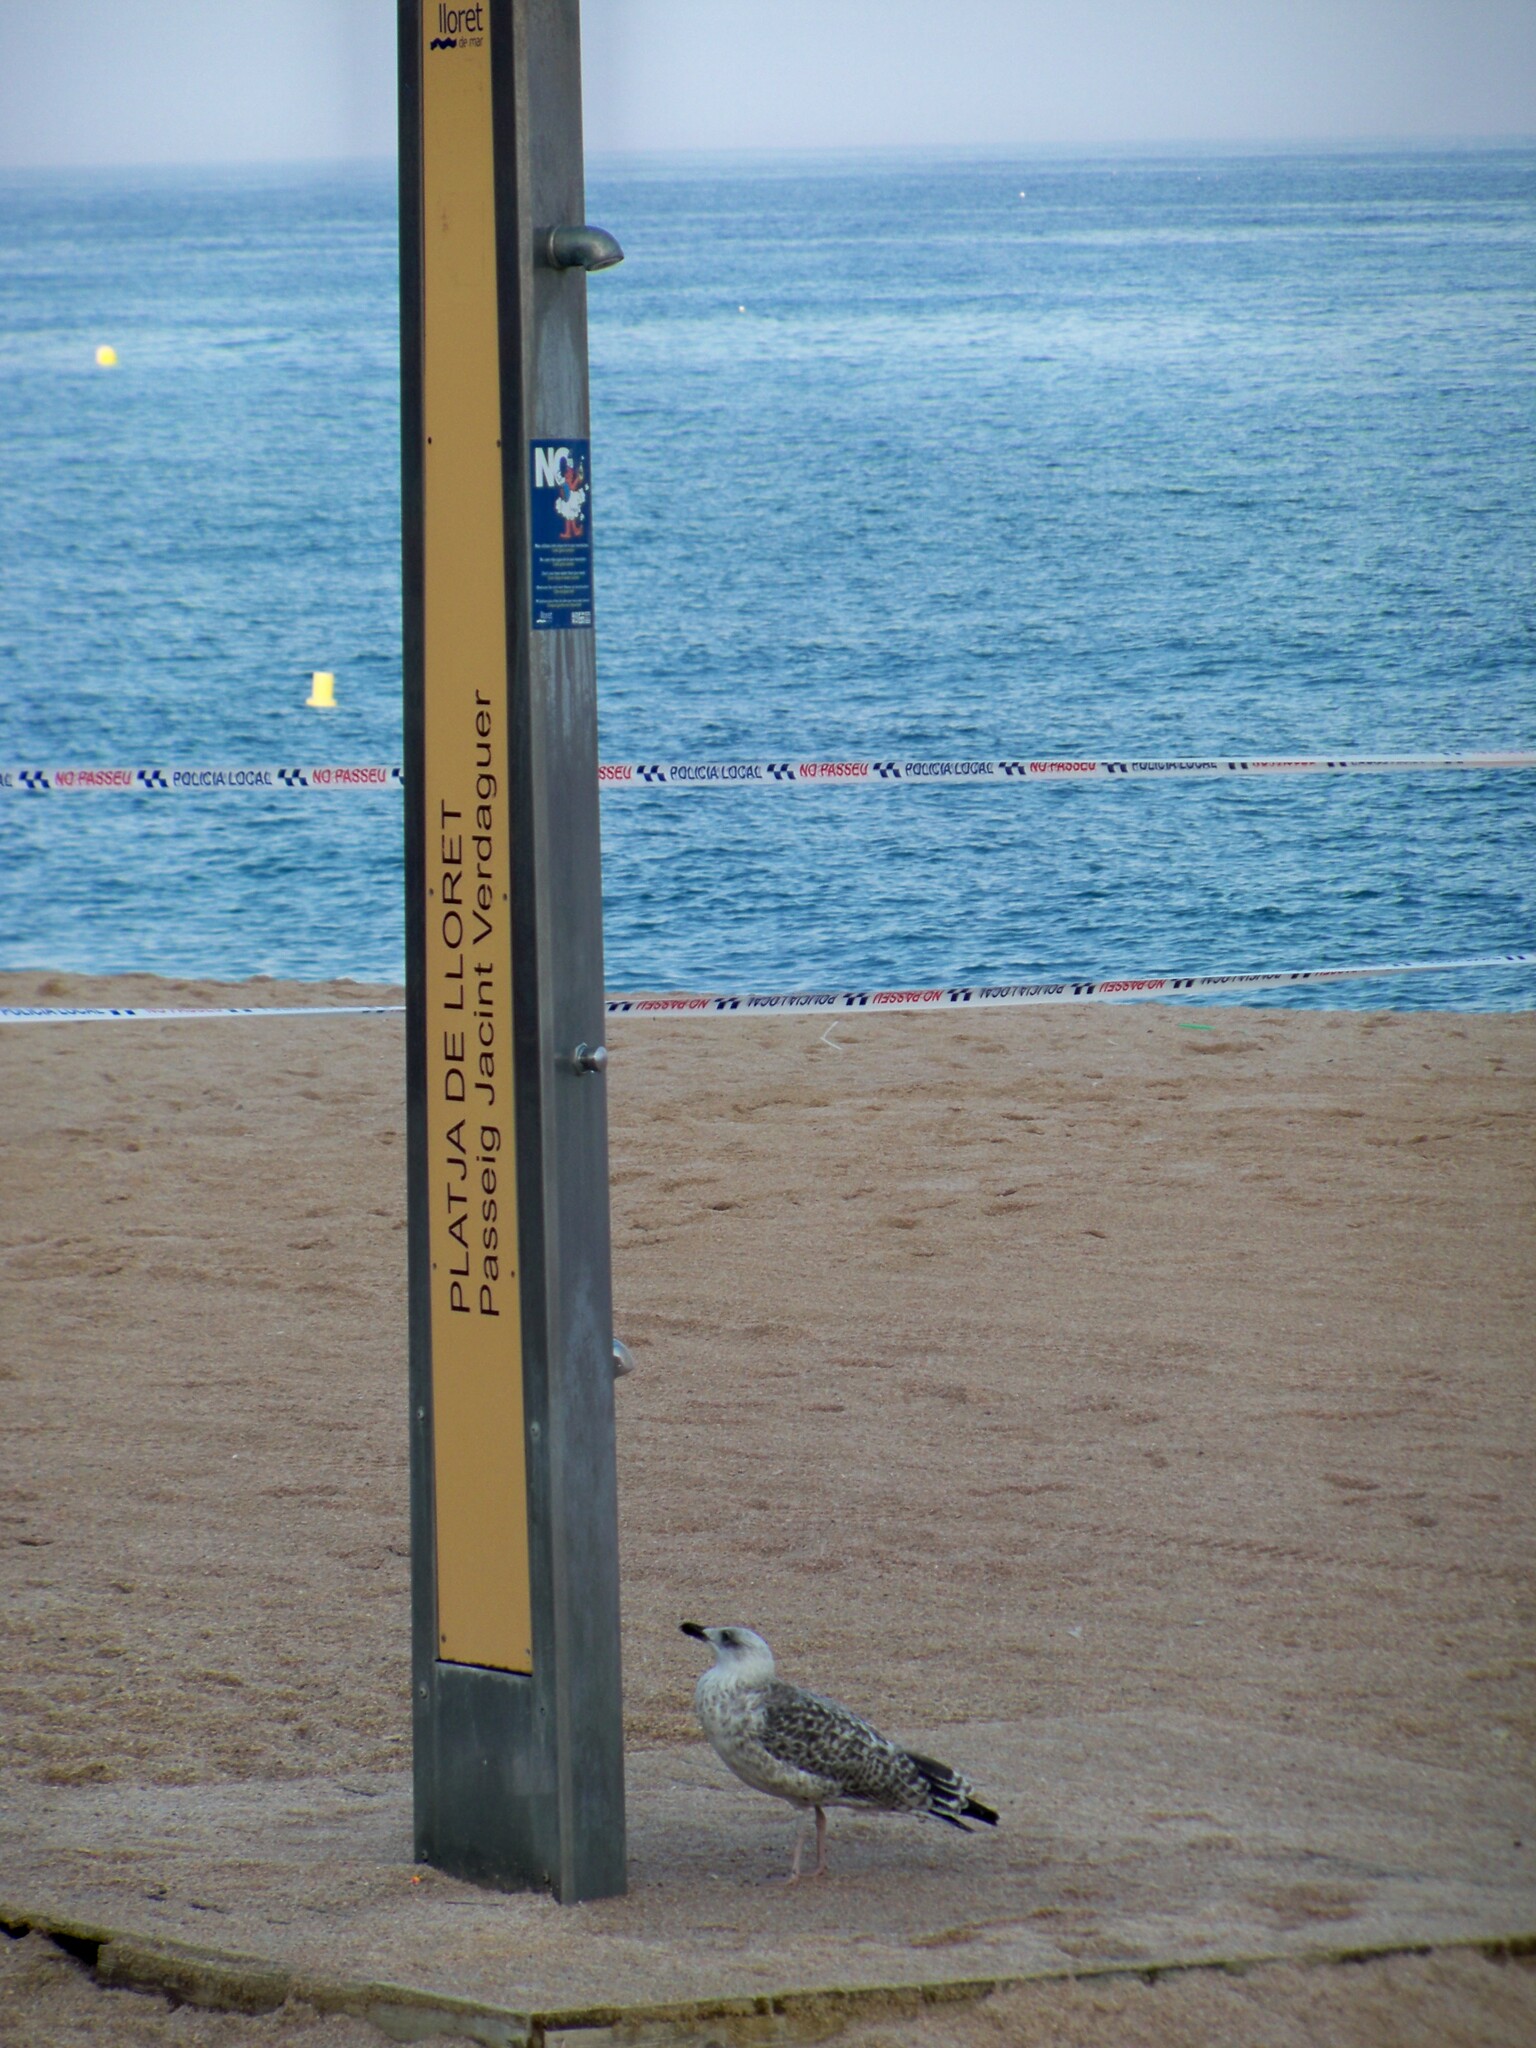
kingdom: Animalia
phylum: Chordata
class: Aves
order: Charadriiformes
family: Laridae
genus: Larus
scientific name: Larus michahellis
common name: Yellow-legged gull
